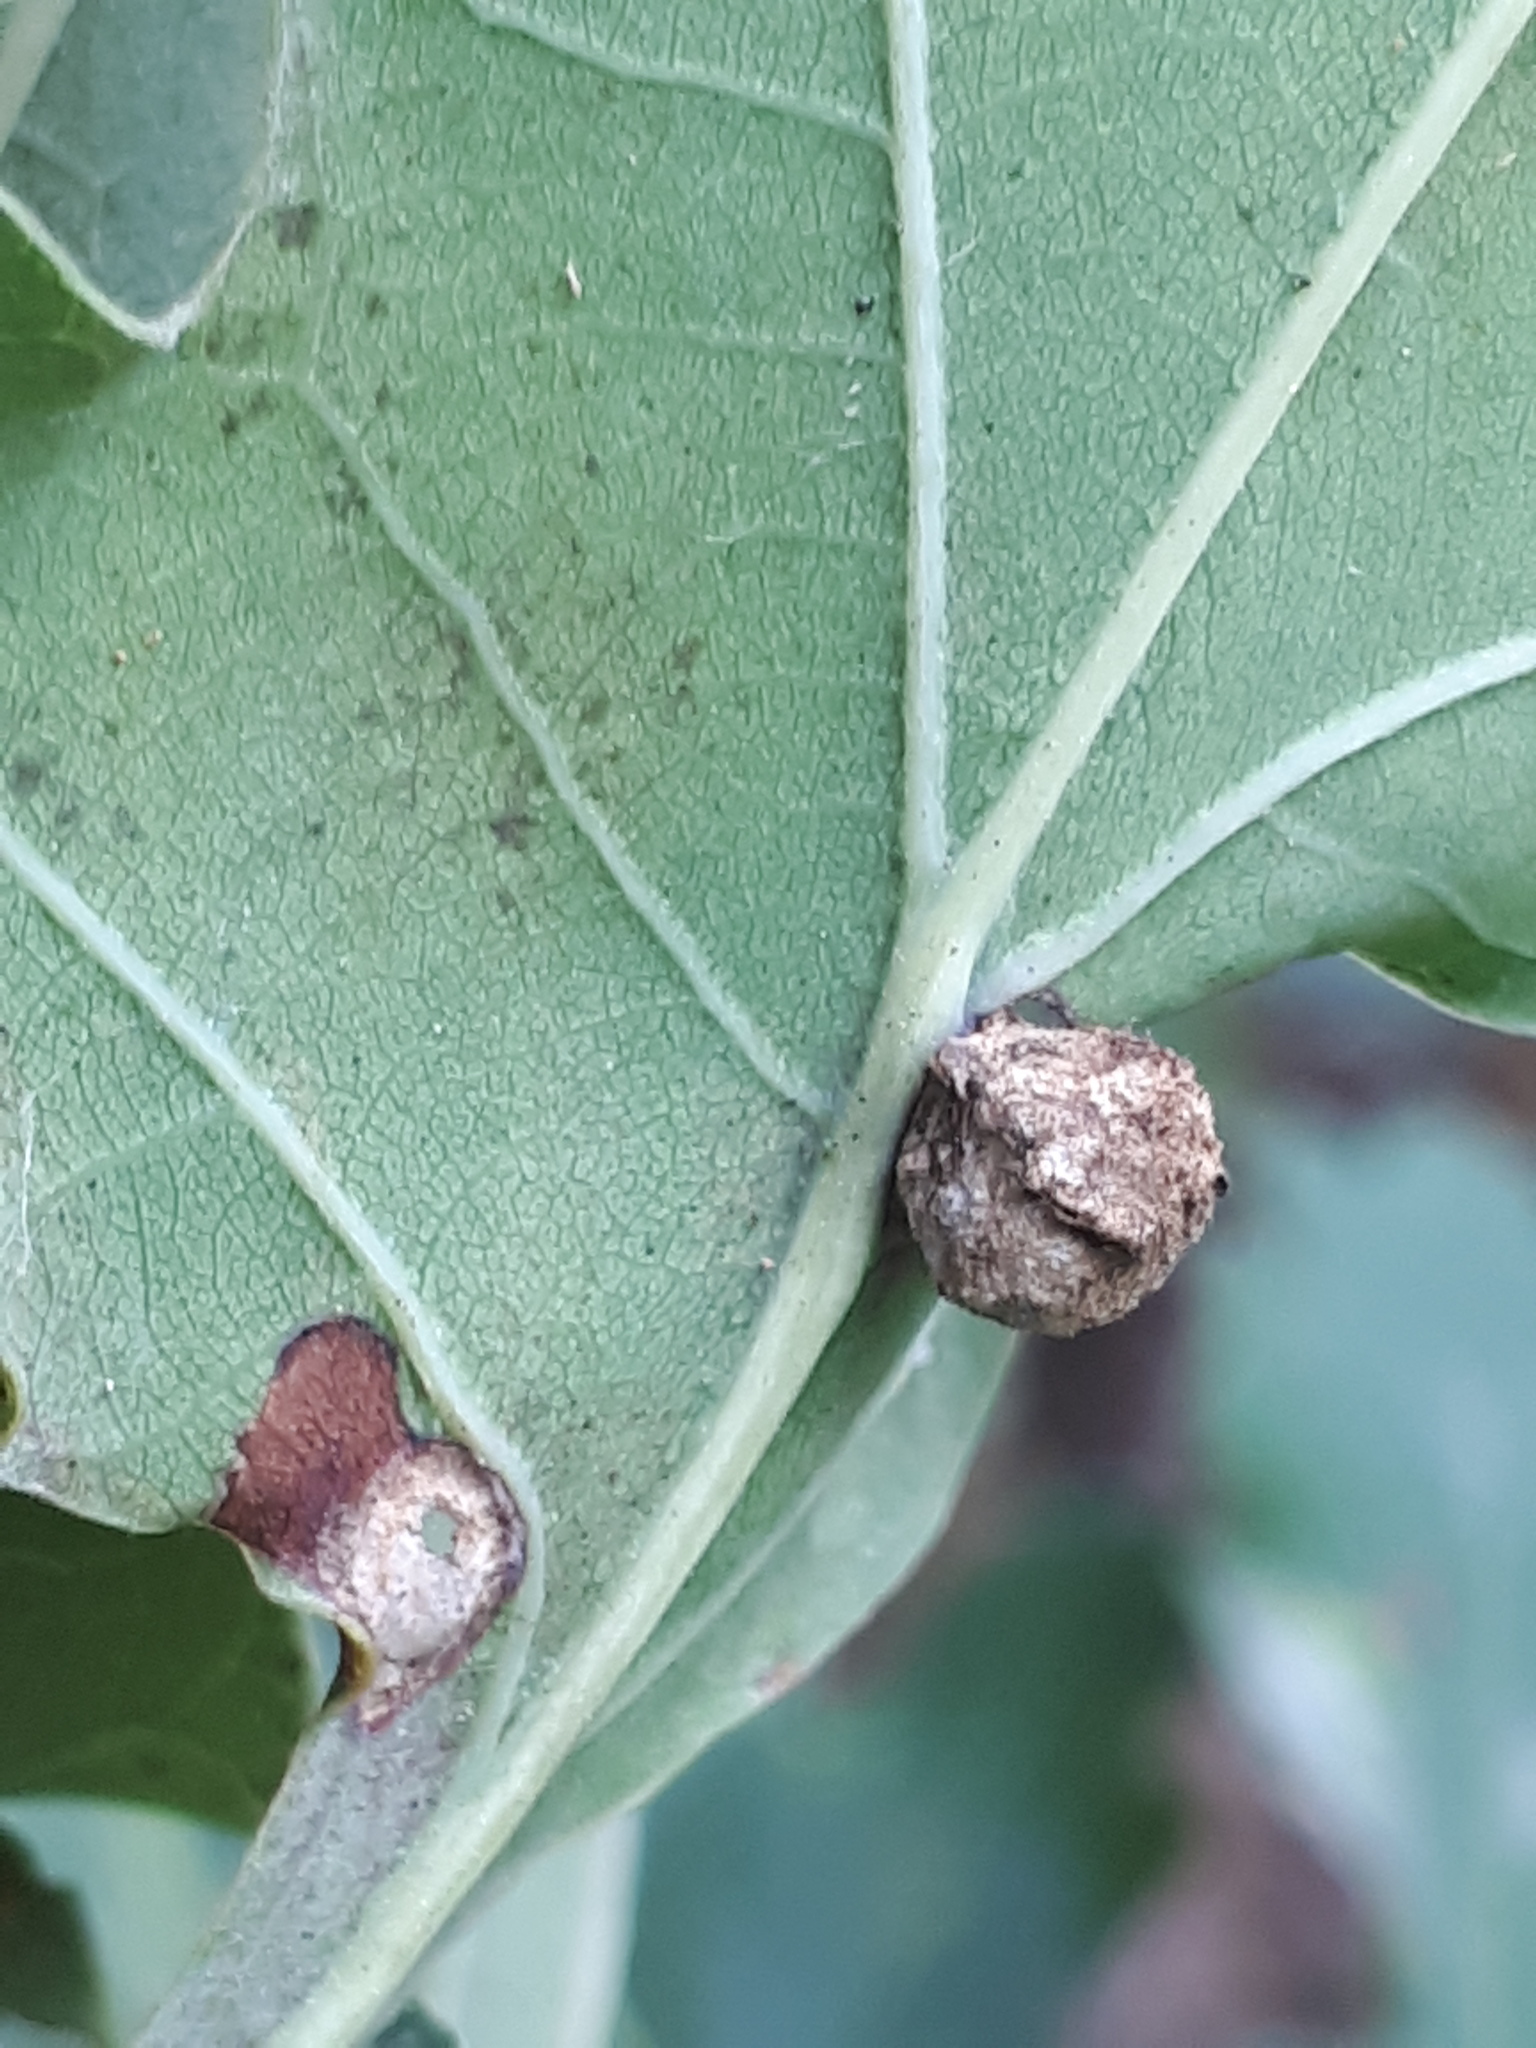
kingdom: Animalia
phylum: Arthropoda
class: Insecta
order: Hymenoptera
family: Cynipidae
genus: Neuroterus
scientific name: Neuroterus quercusbaccarum
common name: Common spangle gall
